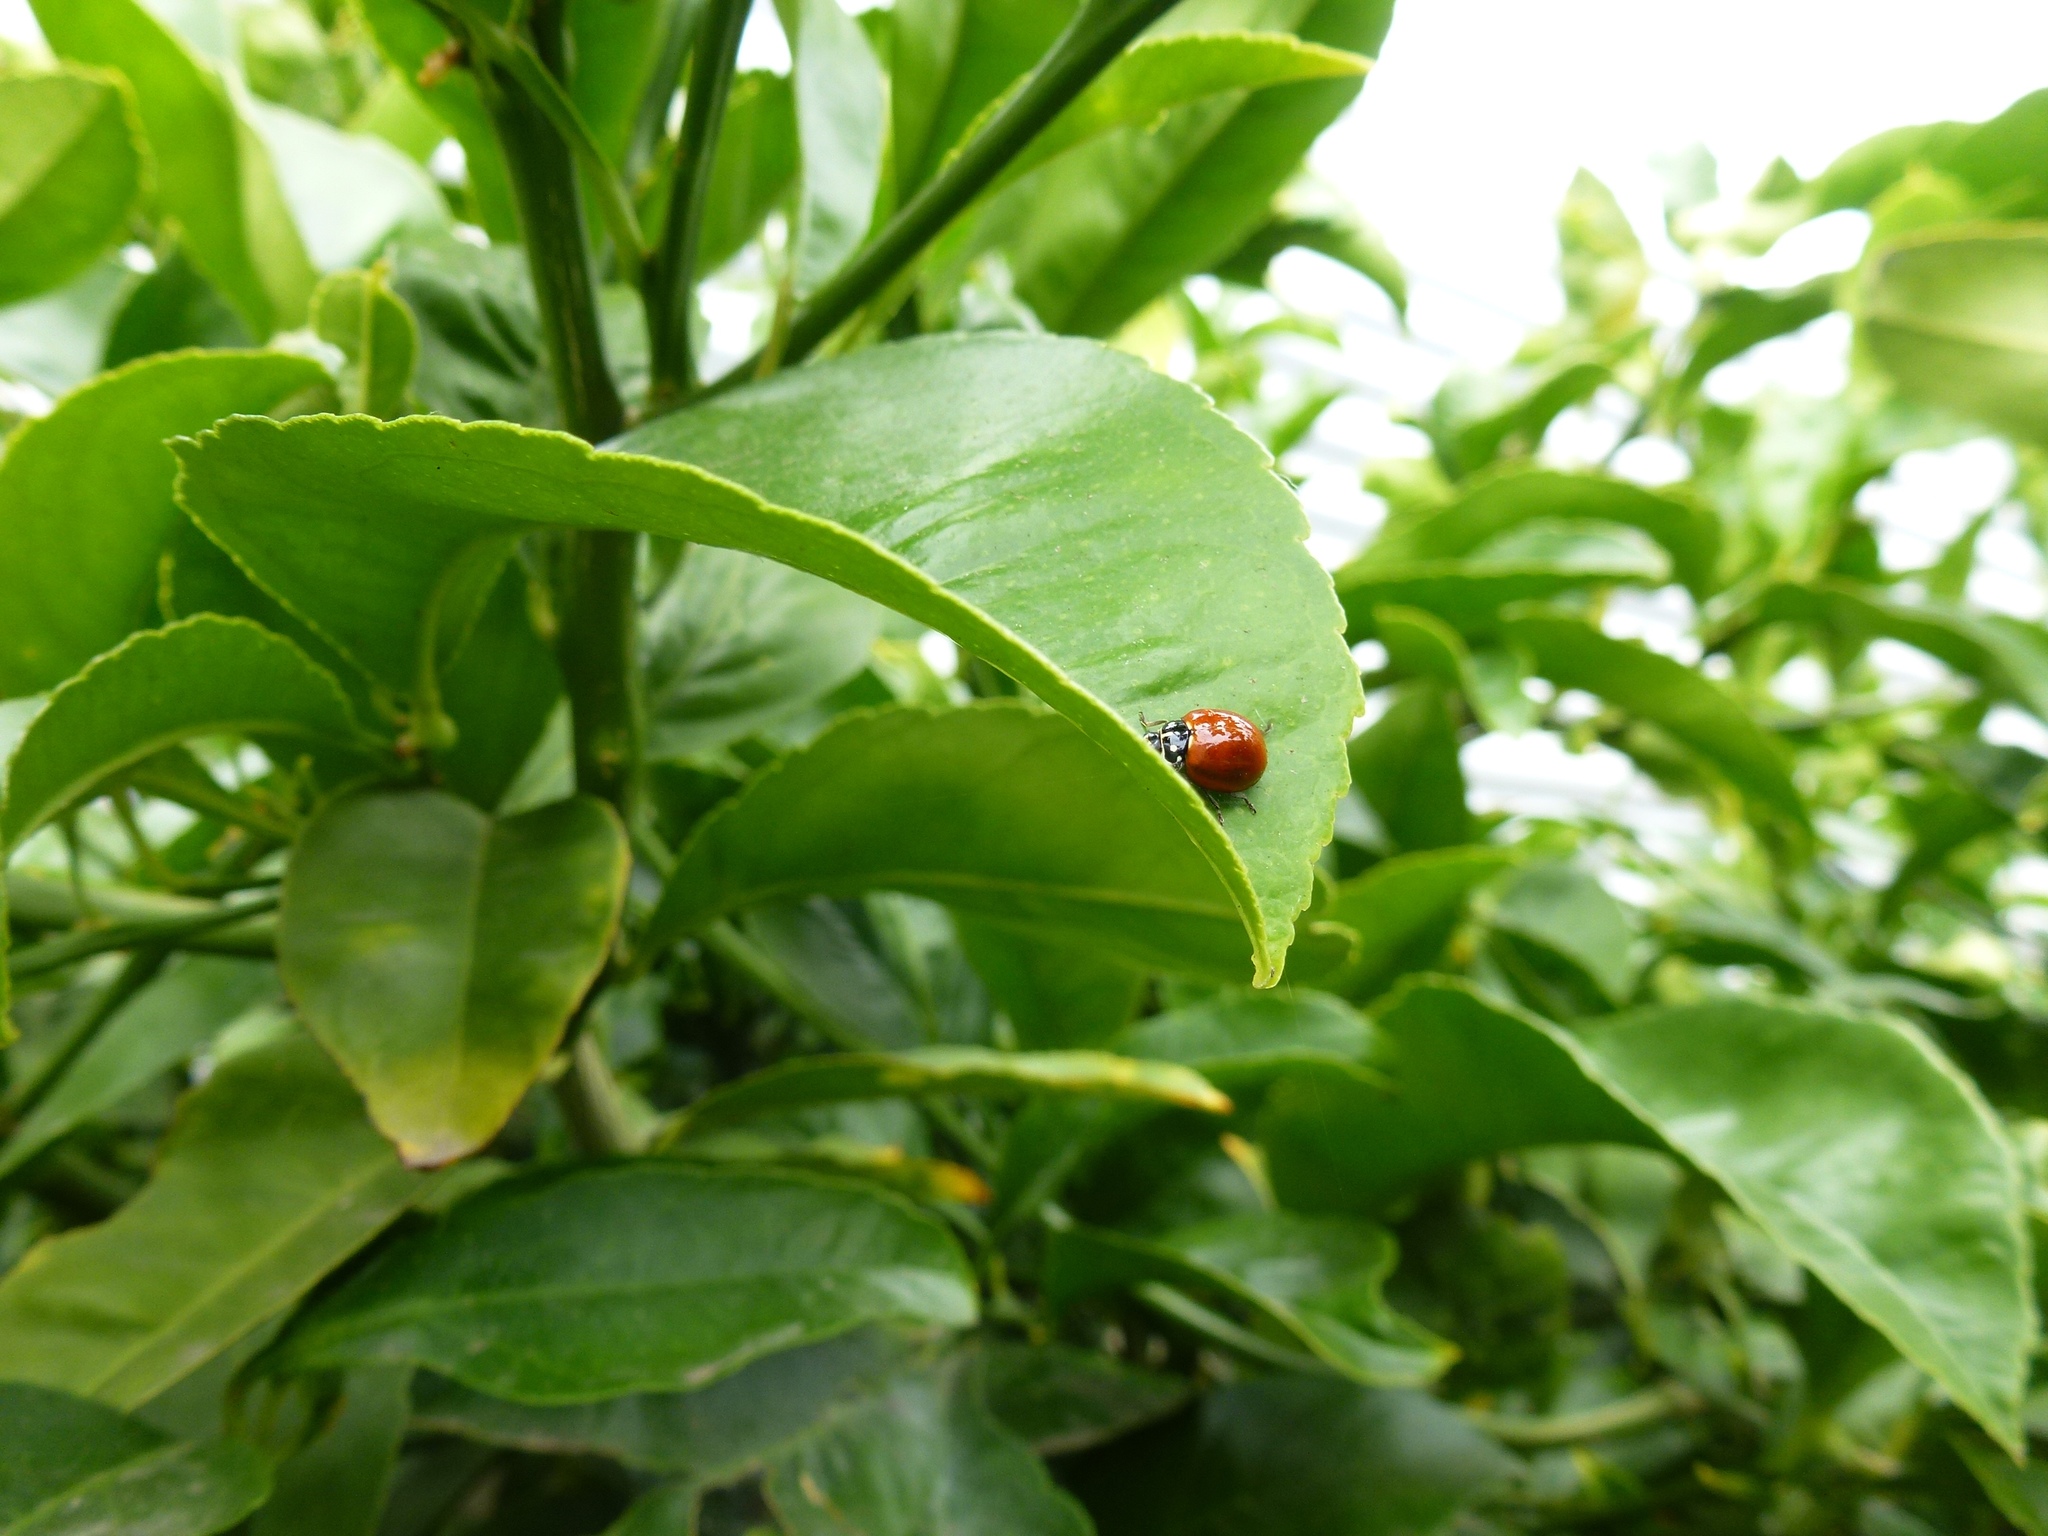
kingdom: Animalia
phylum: Arthropoda
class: Insecta
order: Coleoptera
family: Coccinellidae
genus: Cycloneda
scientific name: Cycloneda sanguinea
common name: Ladybird beetle
